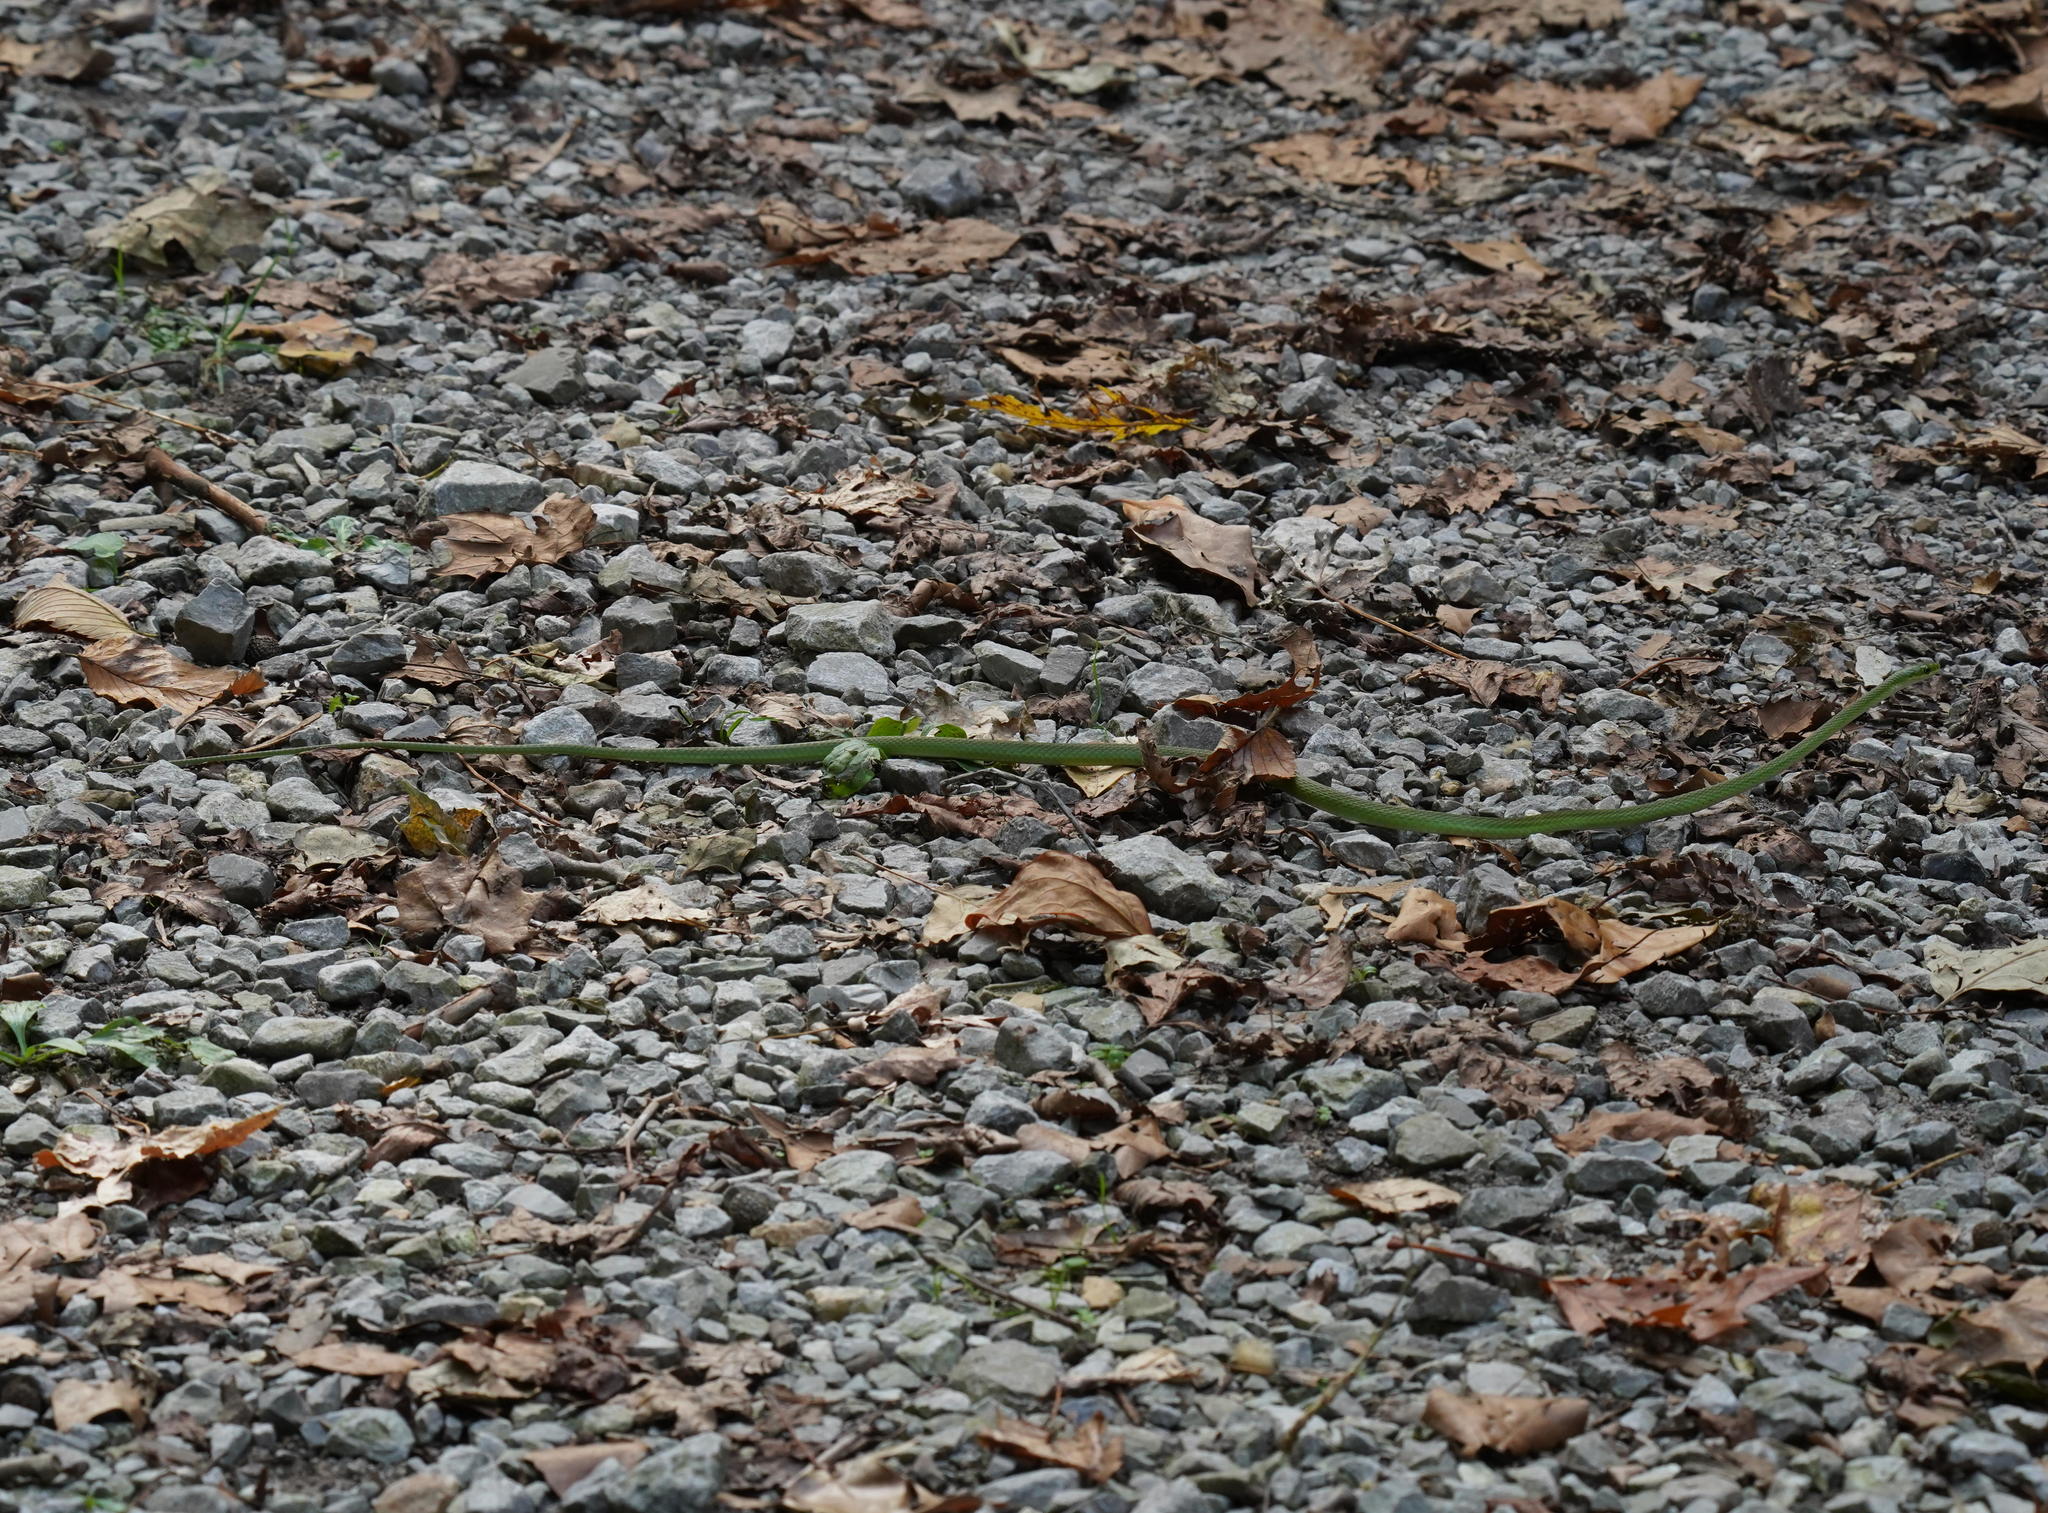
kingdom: Animalia
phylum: Chordata
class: Squamata
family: Colubridae
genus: Opheodrys
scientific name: Opheodrys aestivus
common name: Rough greensnake
